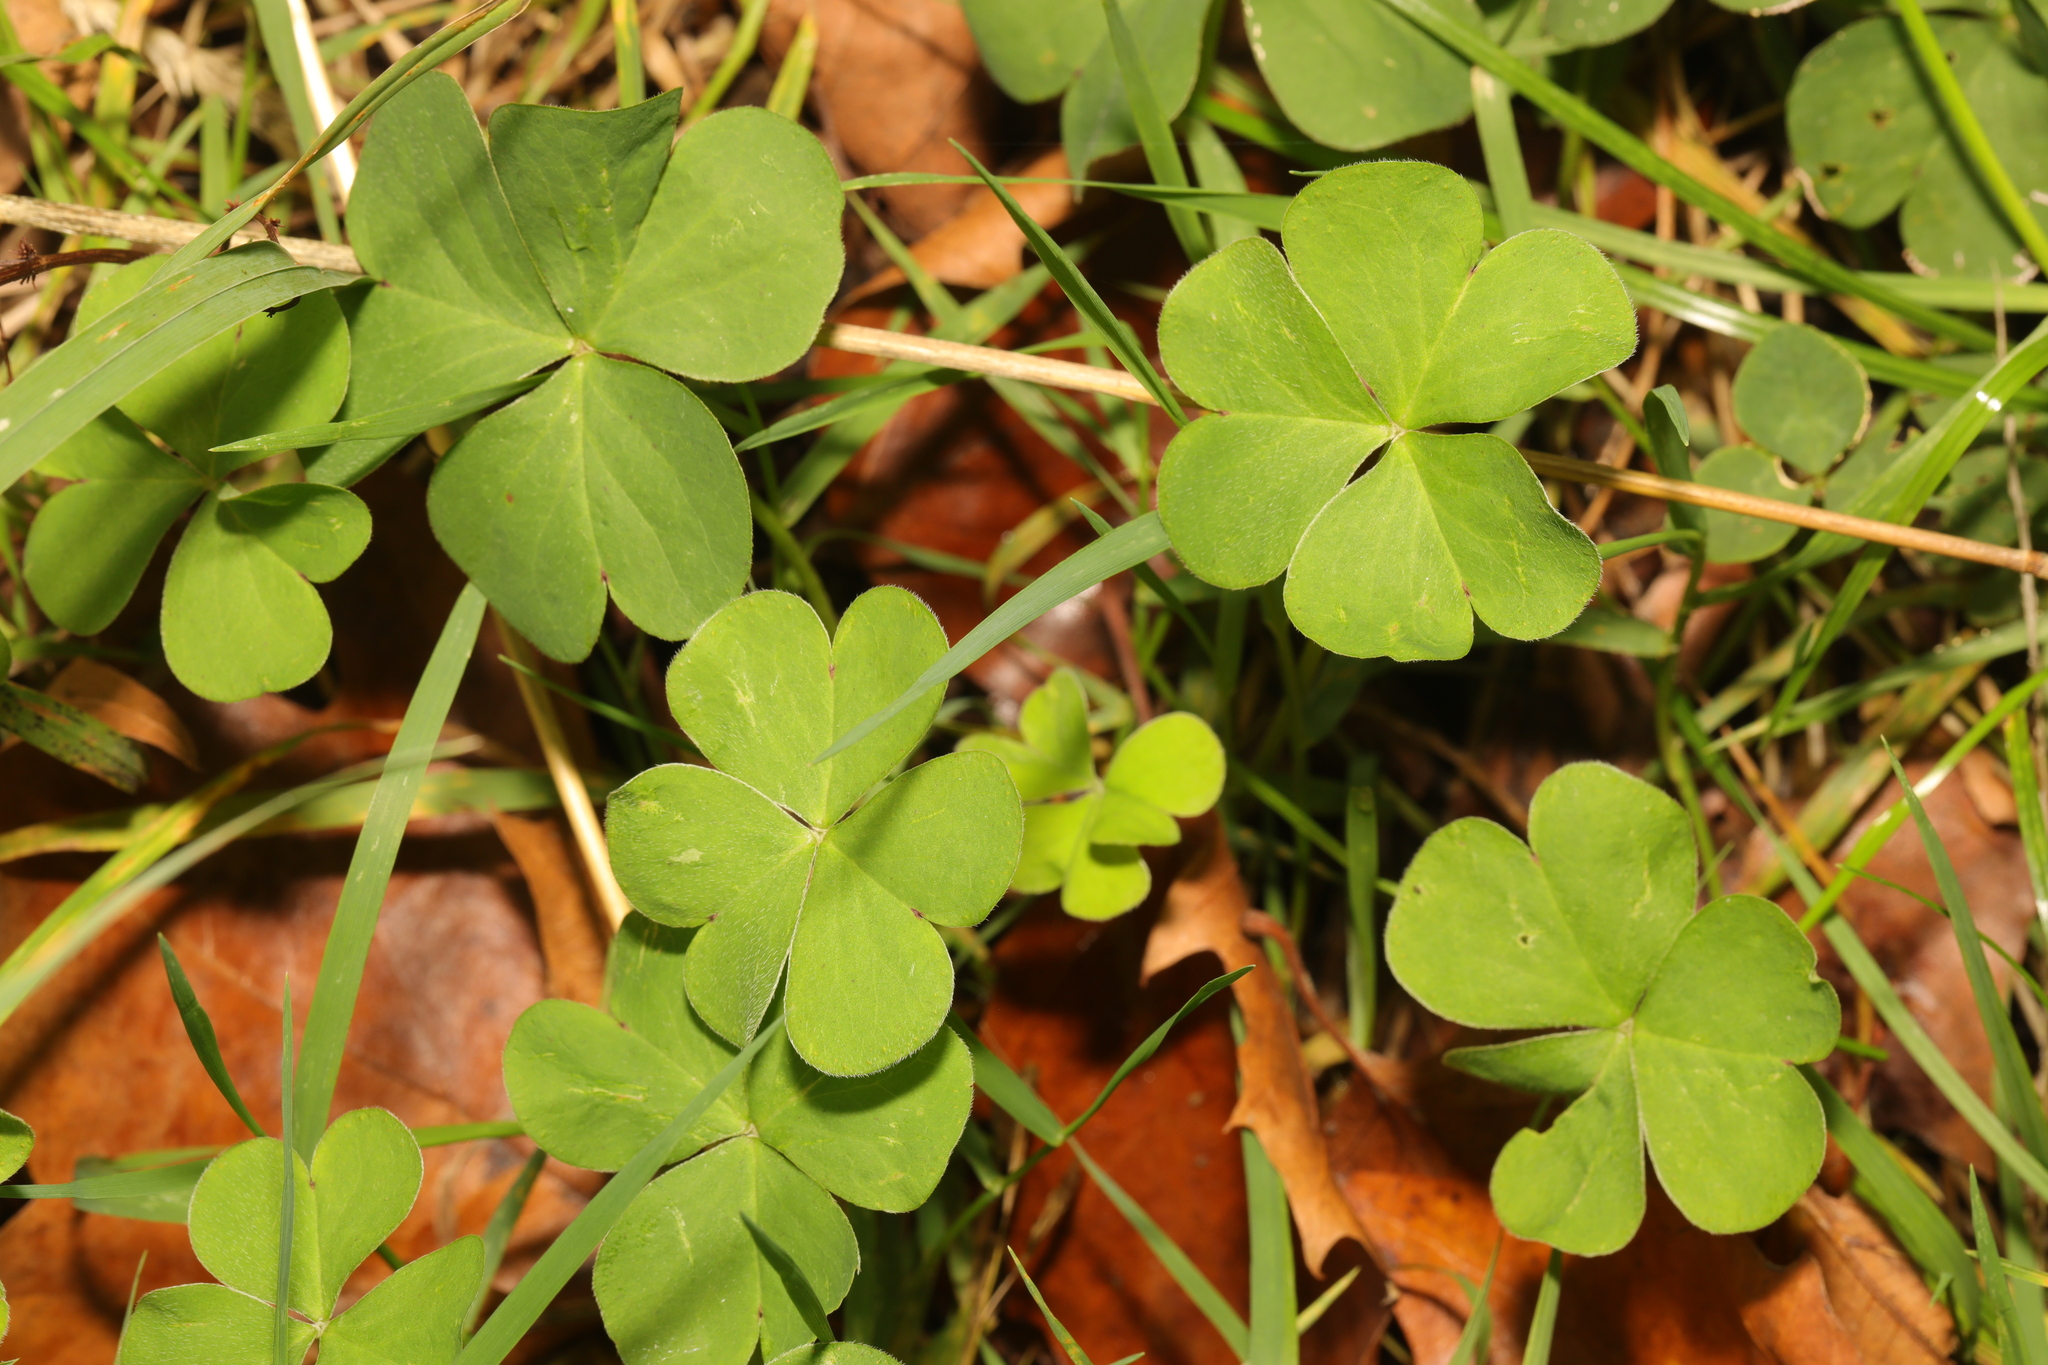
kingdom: Plantae
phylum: Tracheophyta
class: Magnoliopsida
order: Oxalidales
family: Oxalidaceae
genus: Oxalis
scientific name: Oxalis corniculata
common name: Procumbent yellow-sorrel
